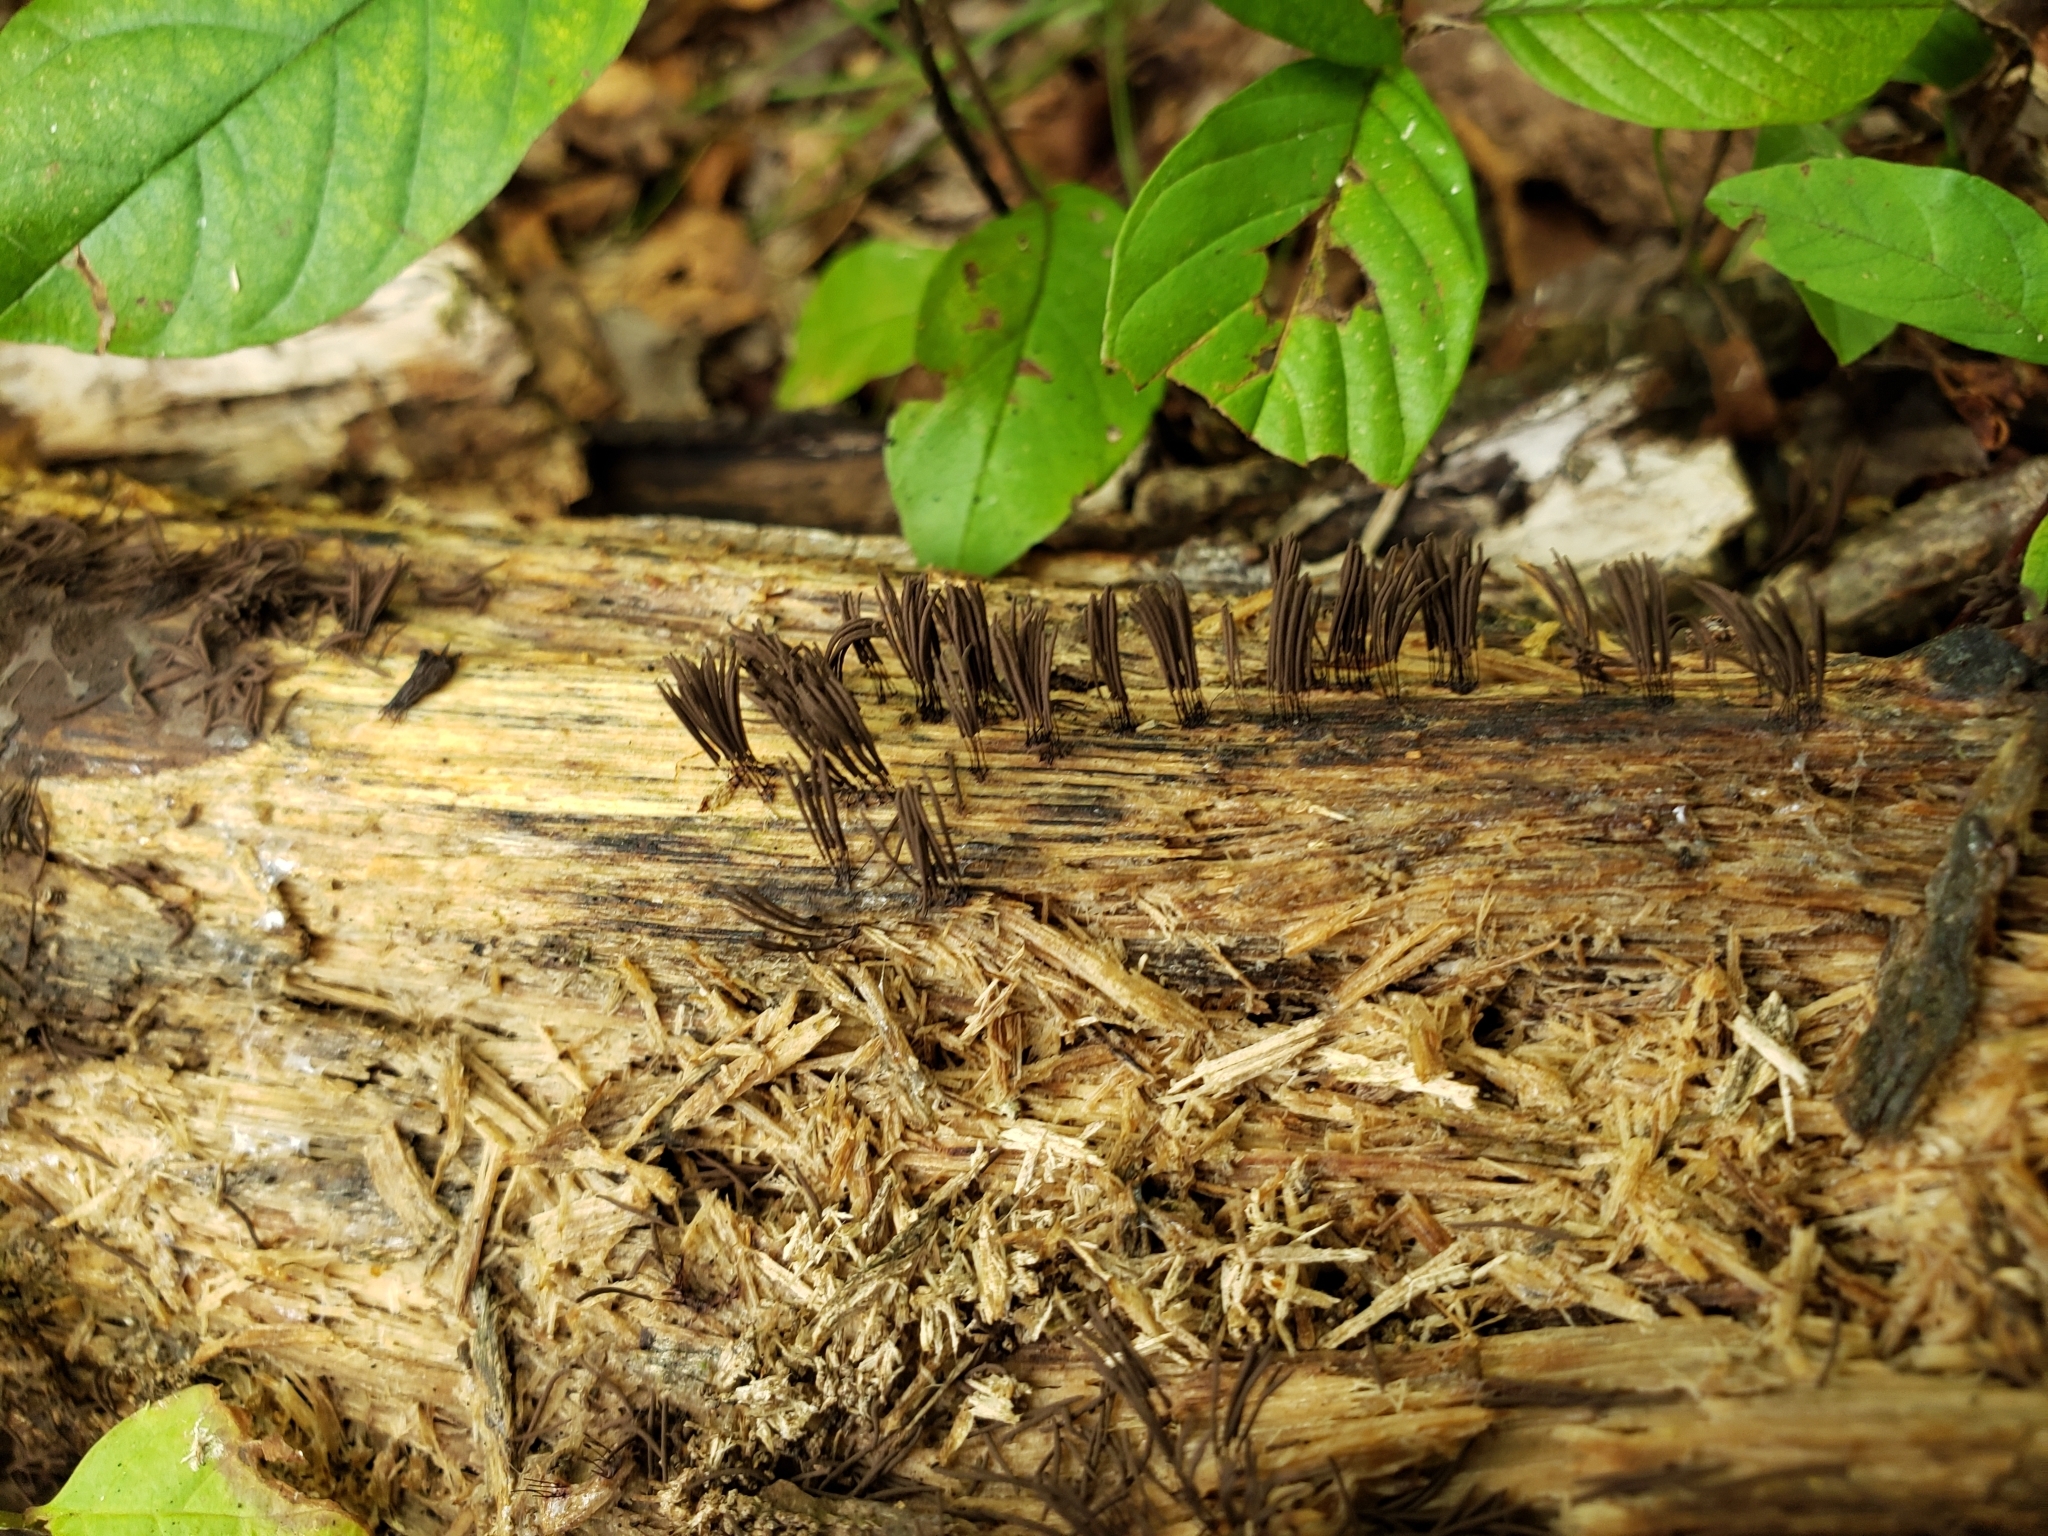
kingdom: Protozoa
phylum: Mycetozoa
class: Myxomycetes
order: Stemonitidales
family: Stemonitidaceae
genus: Stemonitis
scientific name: Stemonitis splendens
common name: Chocolate tube slime
